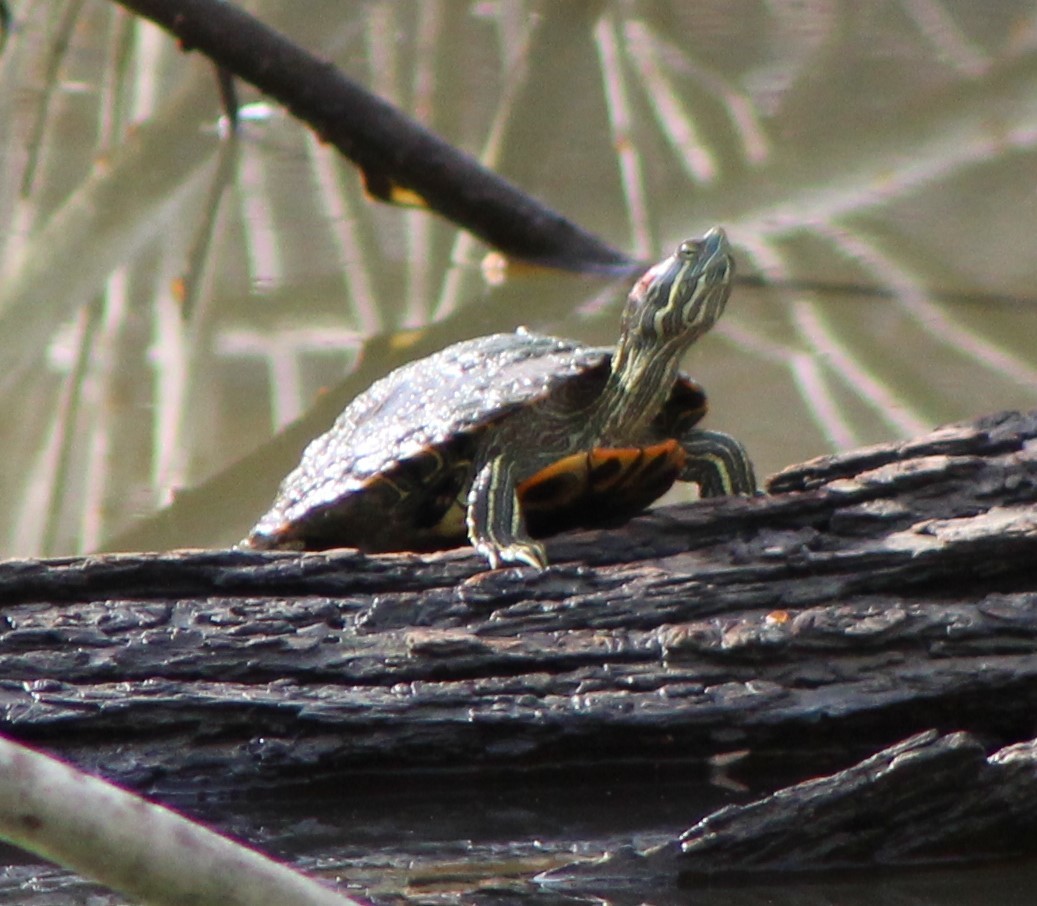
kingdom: Animalia
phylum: Chordata
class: Testudines
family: Emydidae
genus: Trachemys
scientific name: Trachemys scripta
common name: Slider
